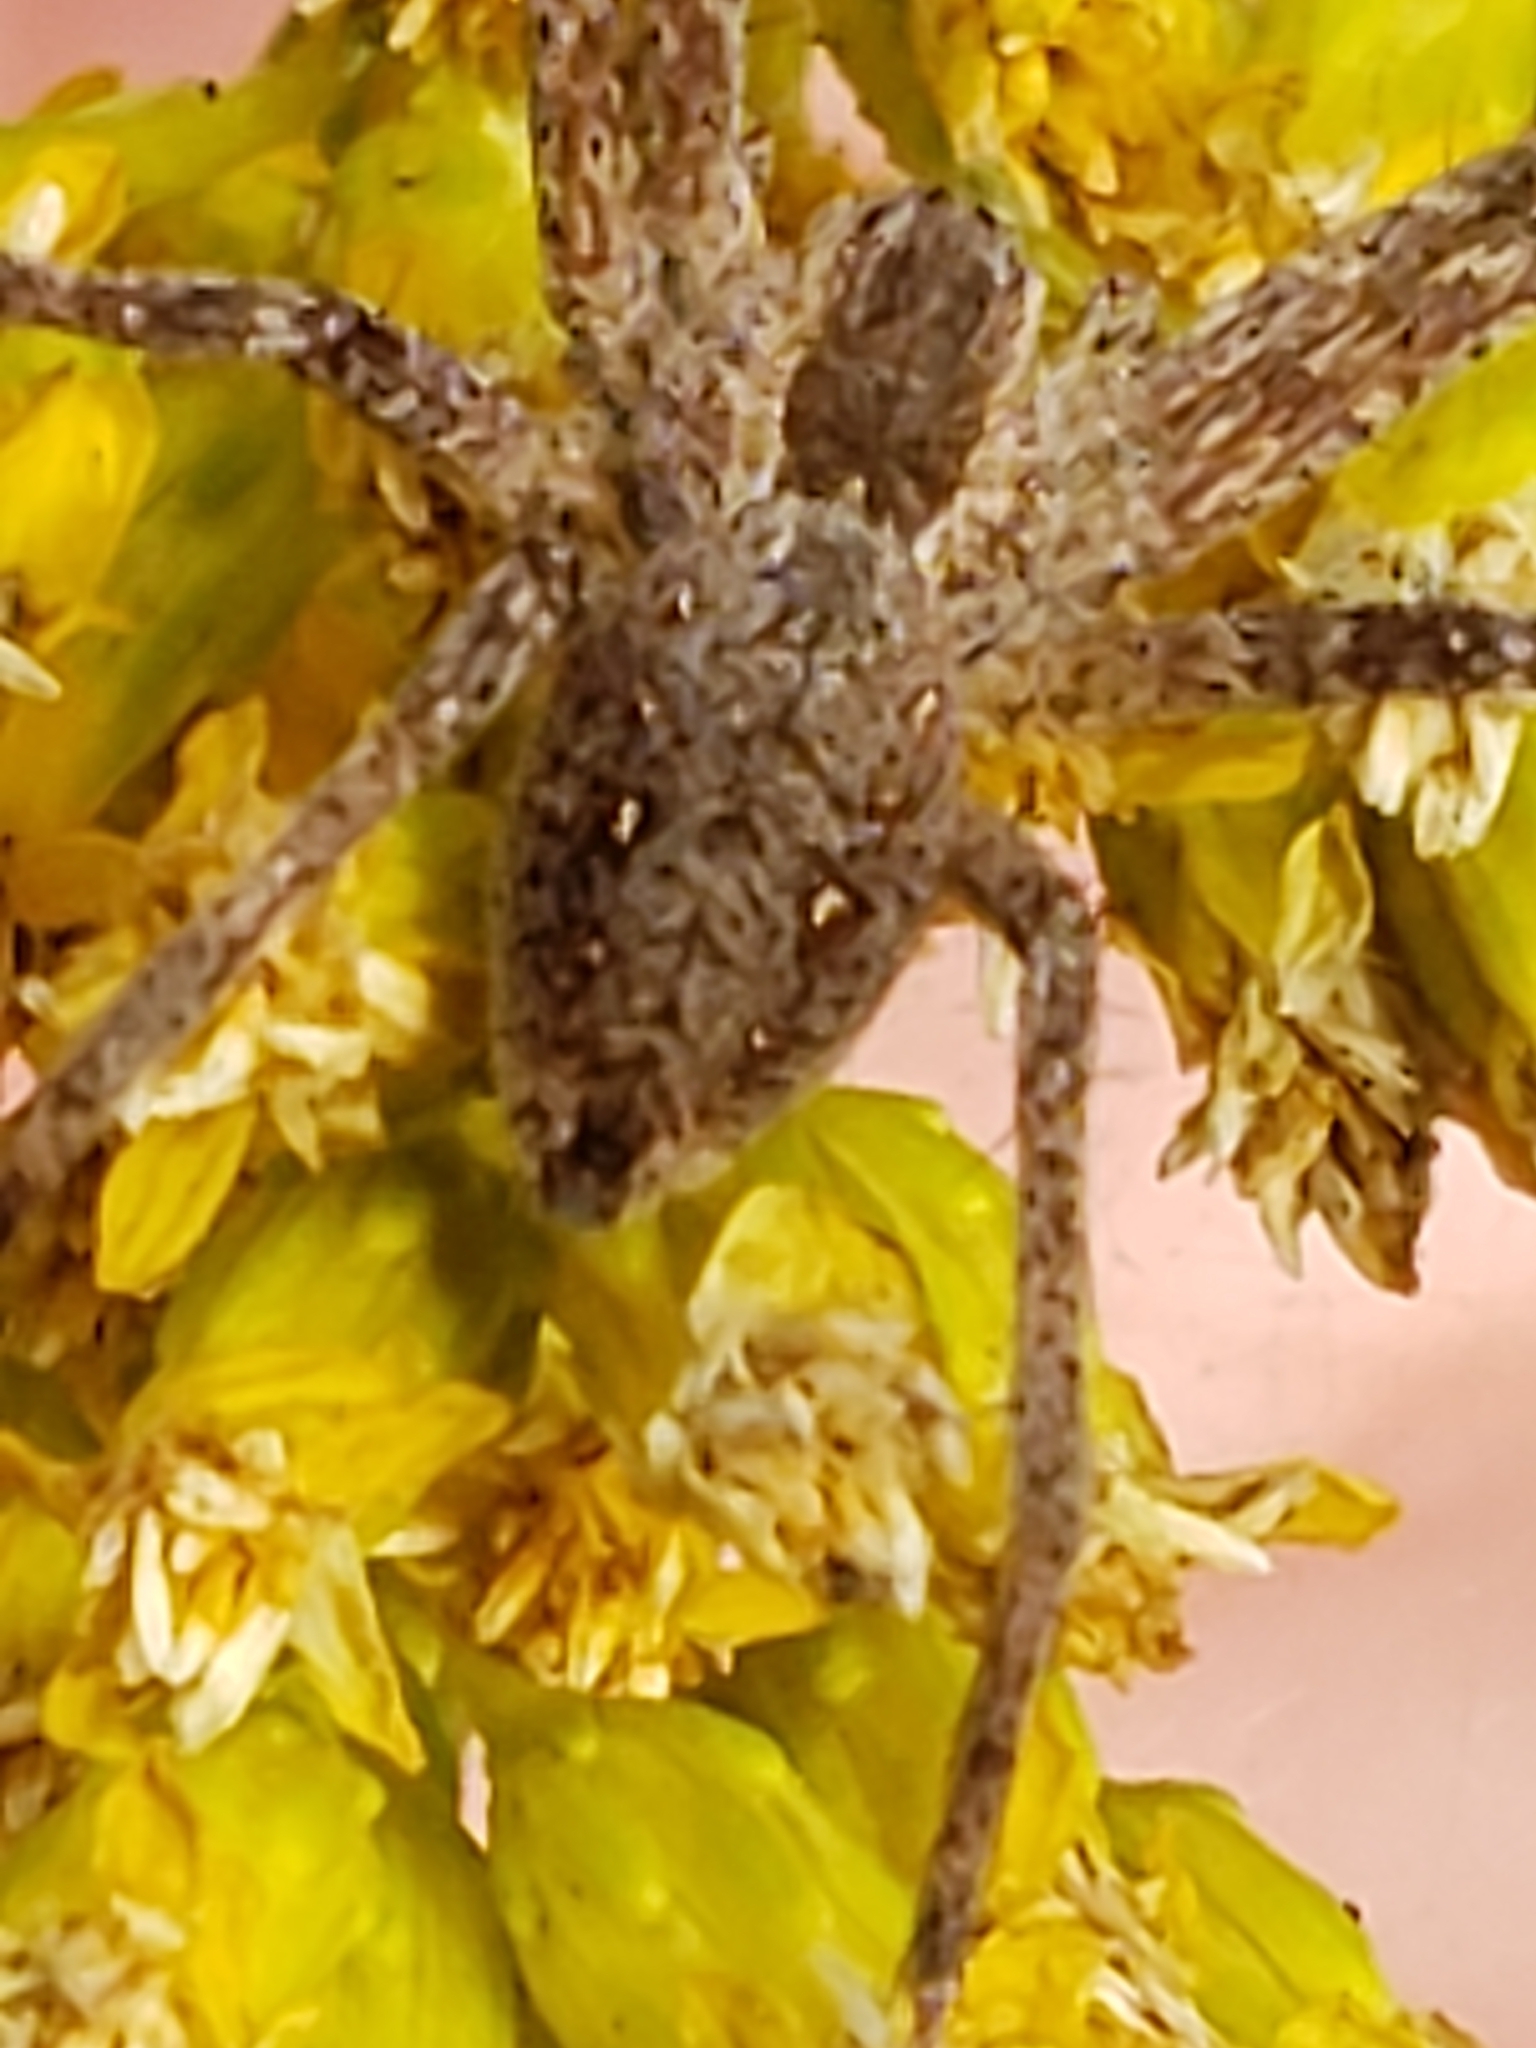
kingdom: Animalia
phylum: Arthropoda
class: Arachnida
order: Araneae
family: Pisauridae
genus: Pisaurina
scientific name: Pisaurina mira
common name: American nursery web spider
